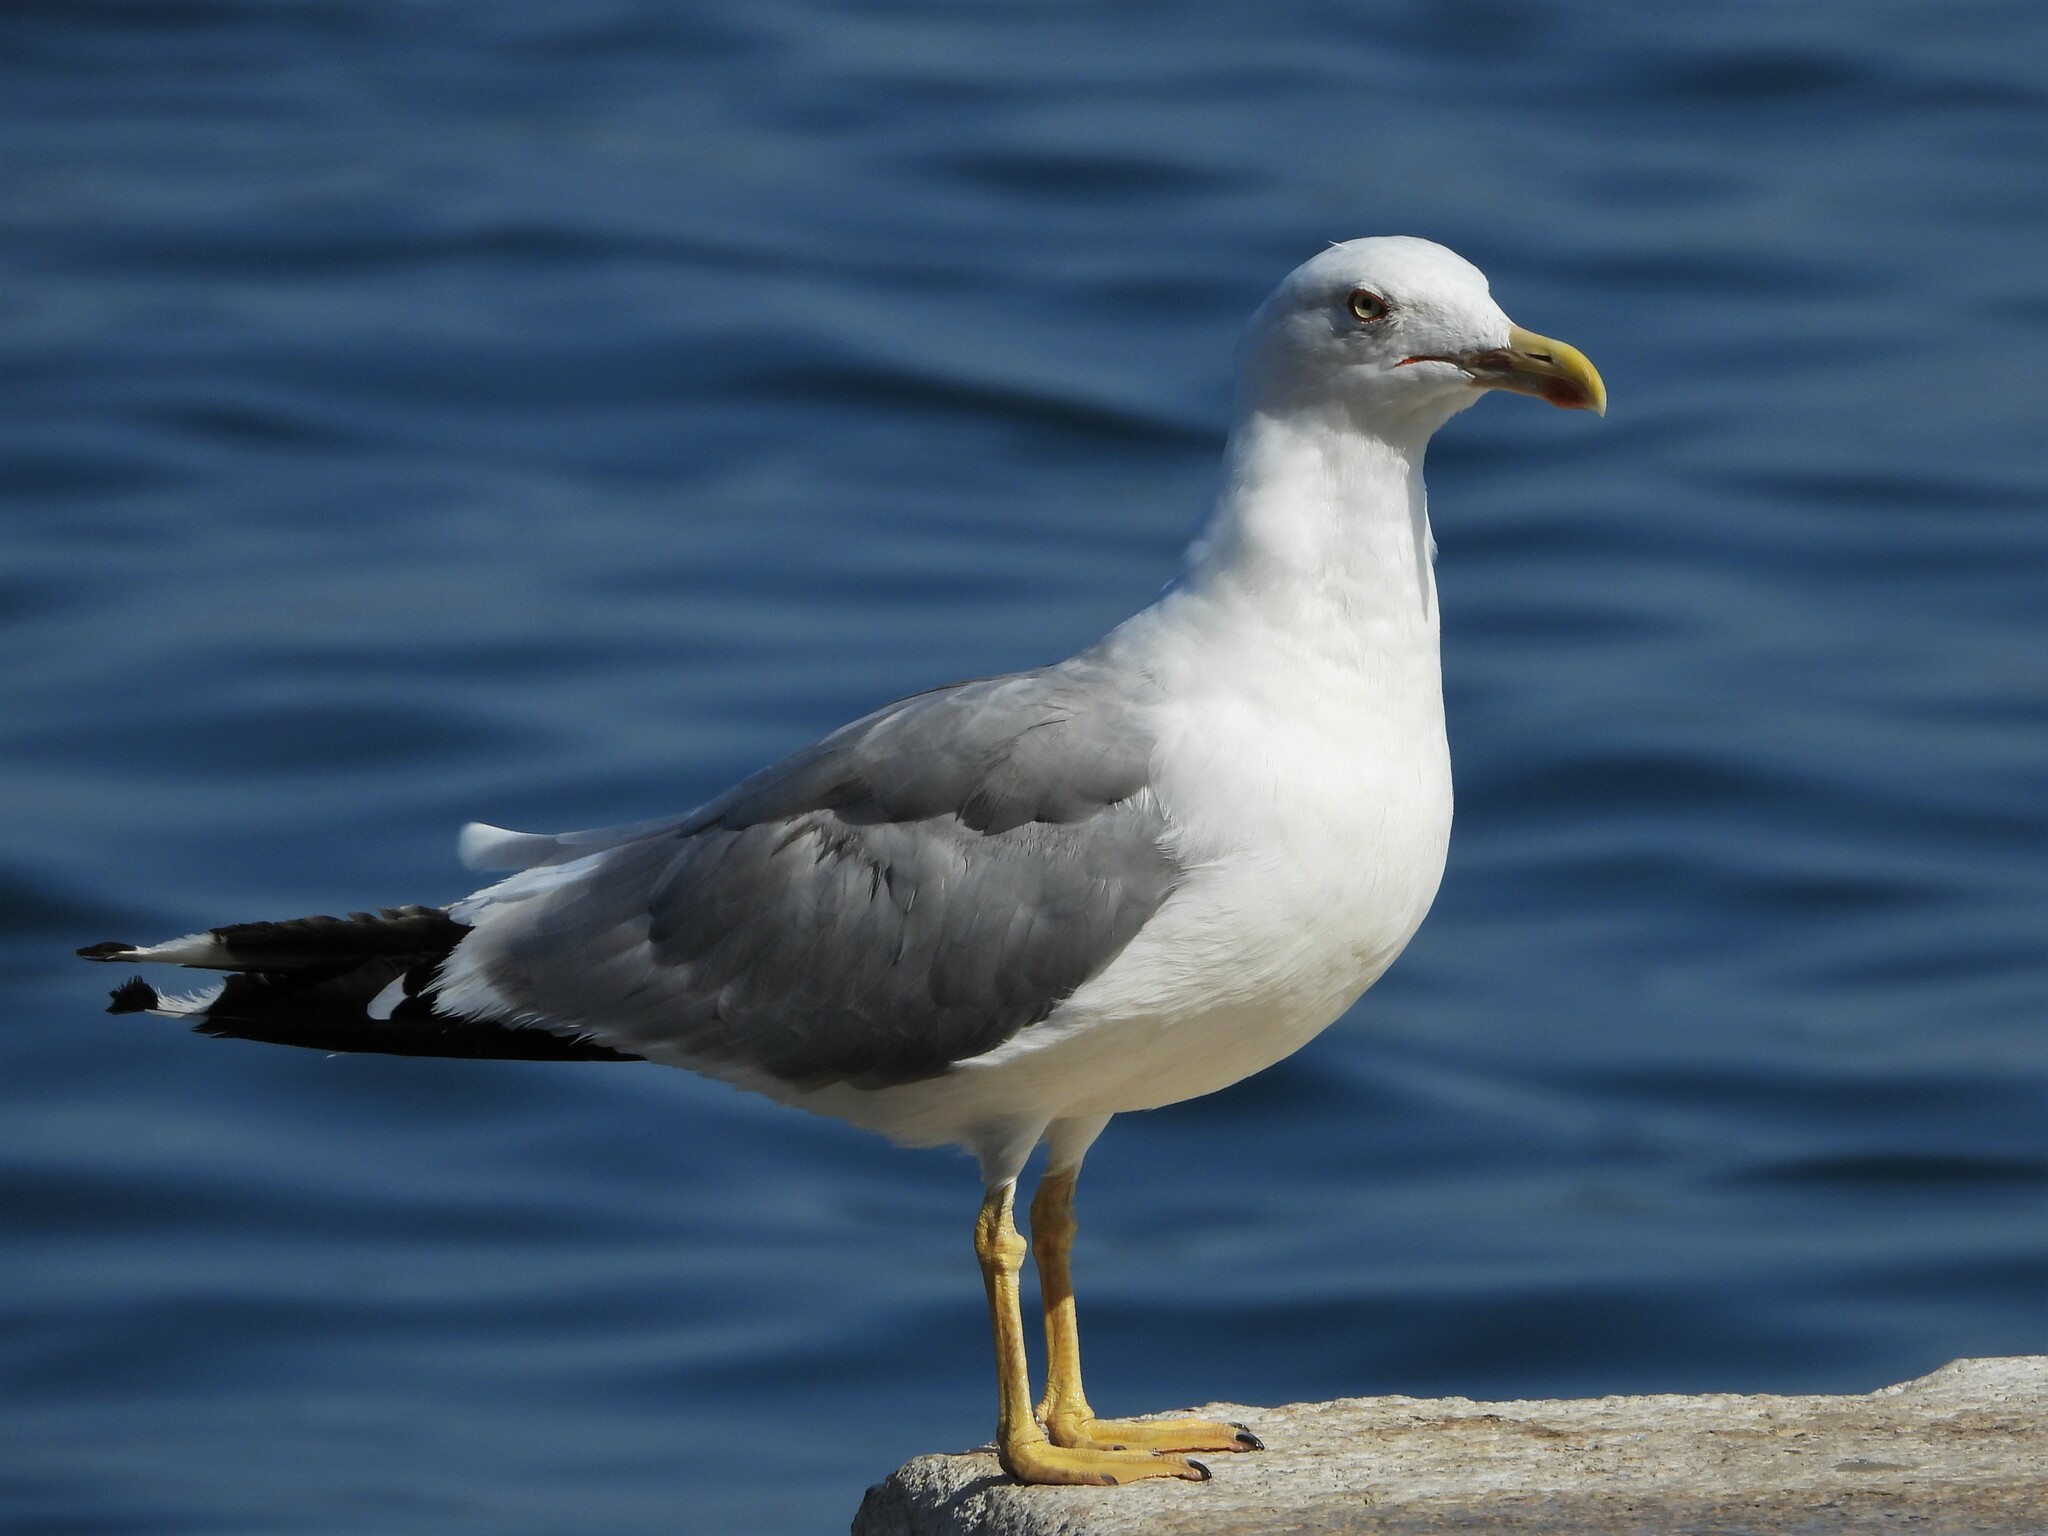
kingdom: Animalia
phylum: Chordata
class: Aves
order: Charadriiformes
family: Laridae
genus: Larus
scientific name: Larus michahellis
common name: Yellow-legged gull
